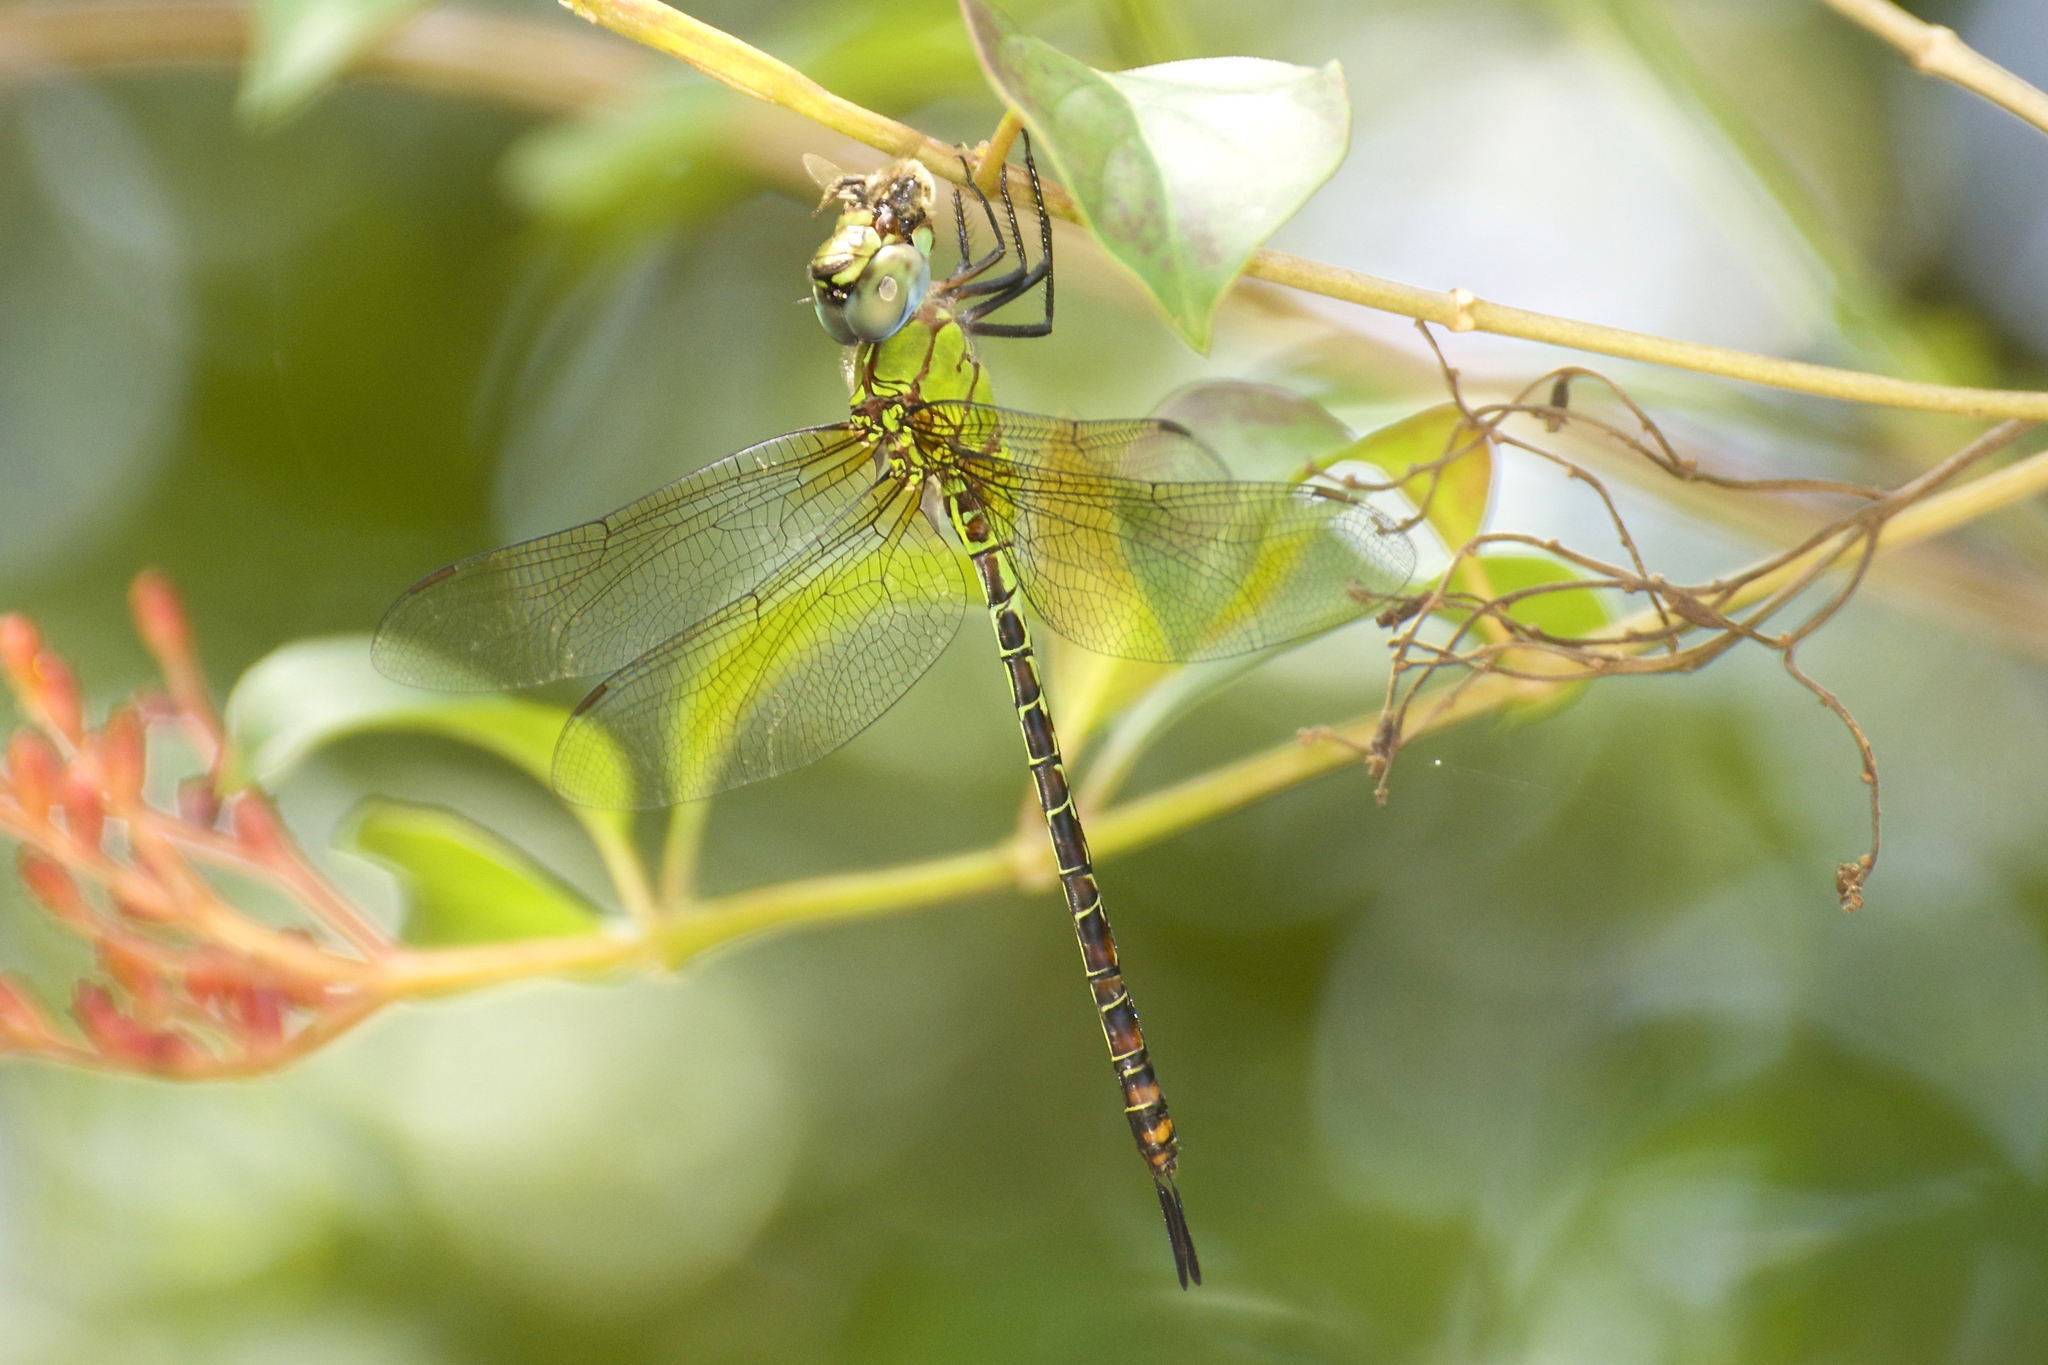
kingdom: Animalia
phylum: Arthropoda
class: Insecta
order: Odonata
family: Aeshnidae
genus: Coryphaeschna
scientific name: Coryphaeschna adnexa
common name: Blue-faced darner
